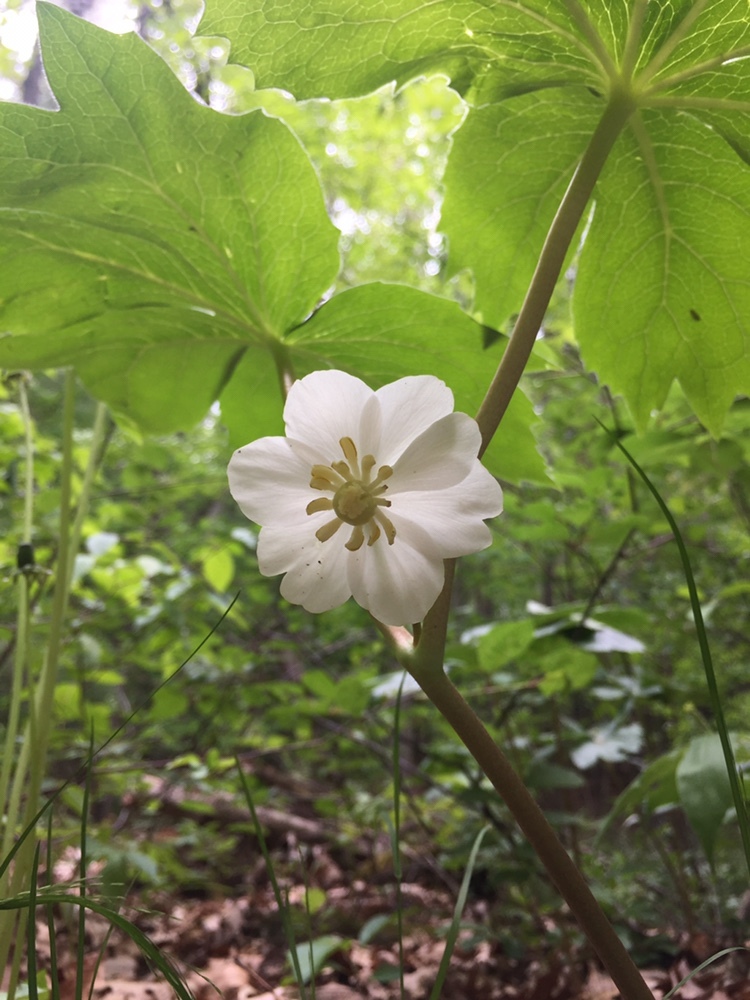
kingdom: Plantae
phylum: Tracheophyta
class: Magnoliopsida
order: Ranunculales
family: Berberidaceae
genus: Podophyllum
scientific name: Podophyllum peltatum
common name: Wild mandrake
